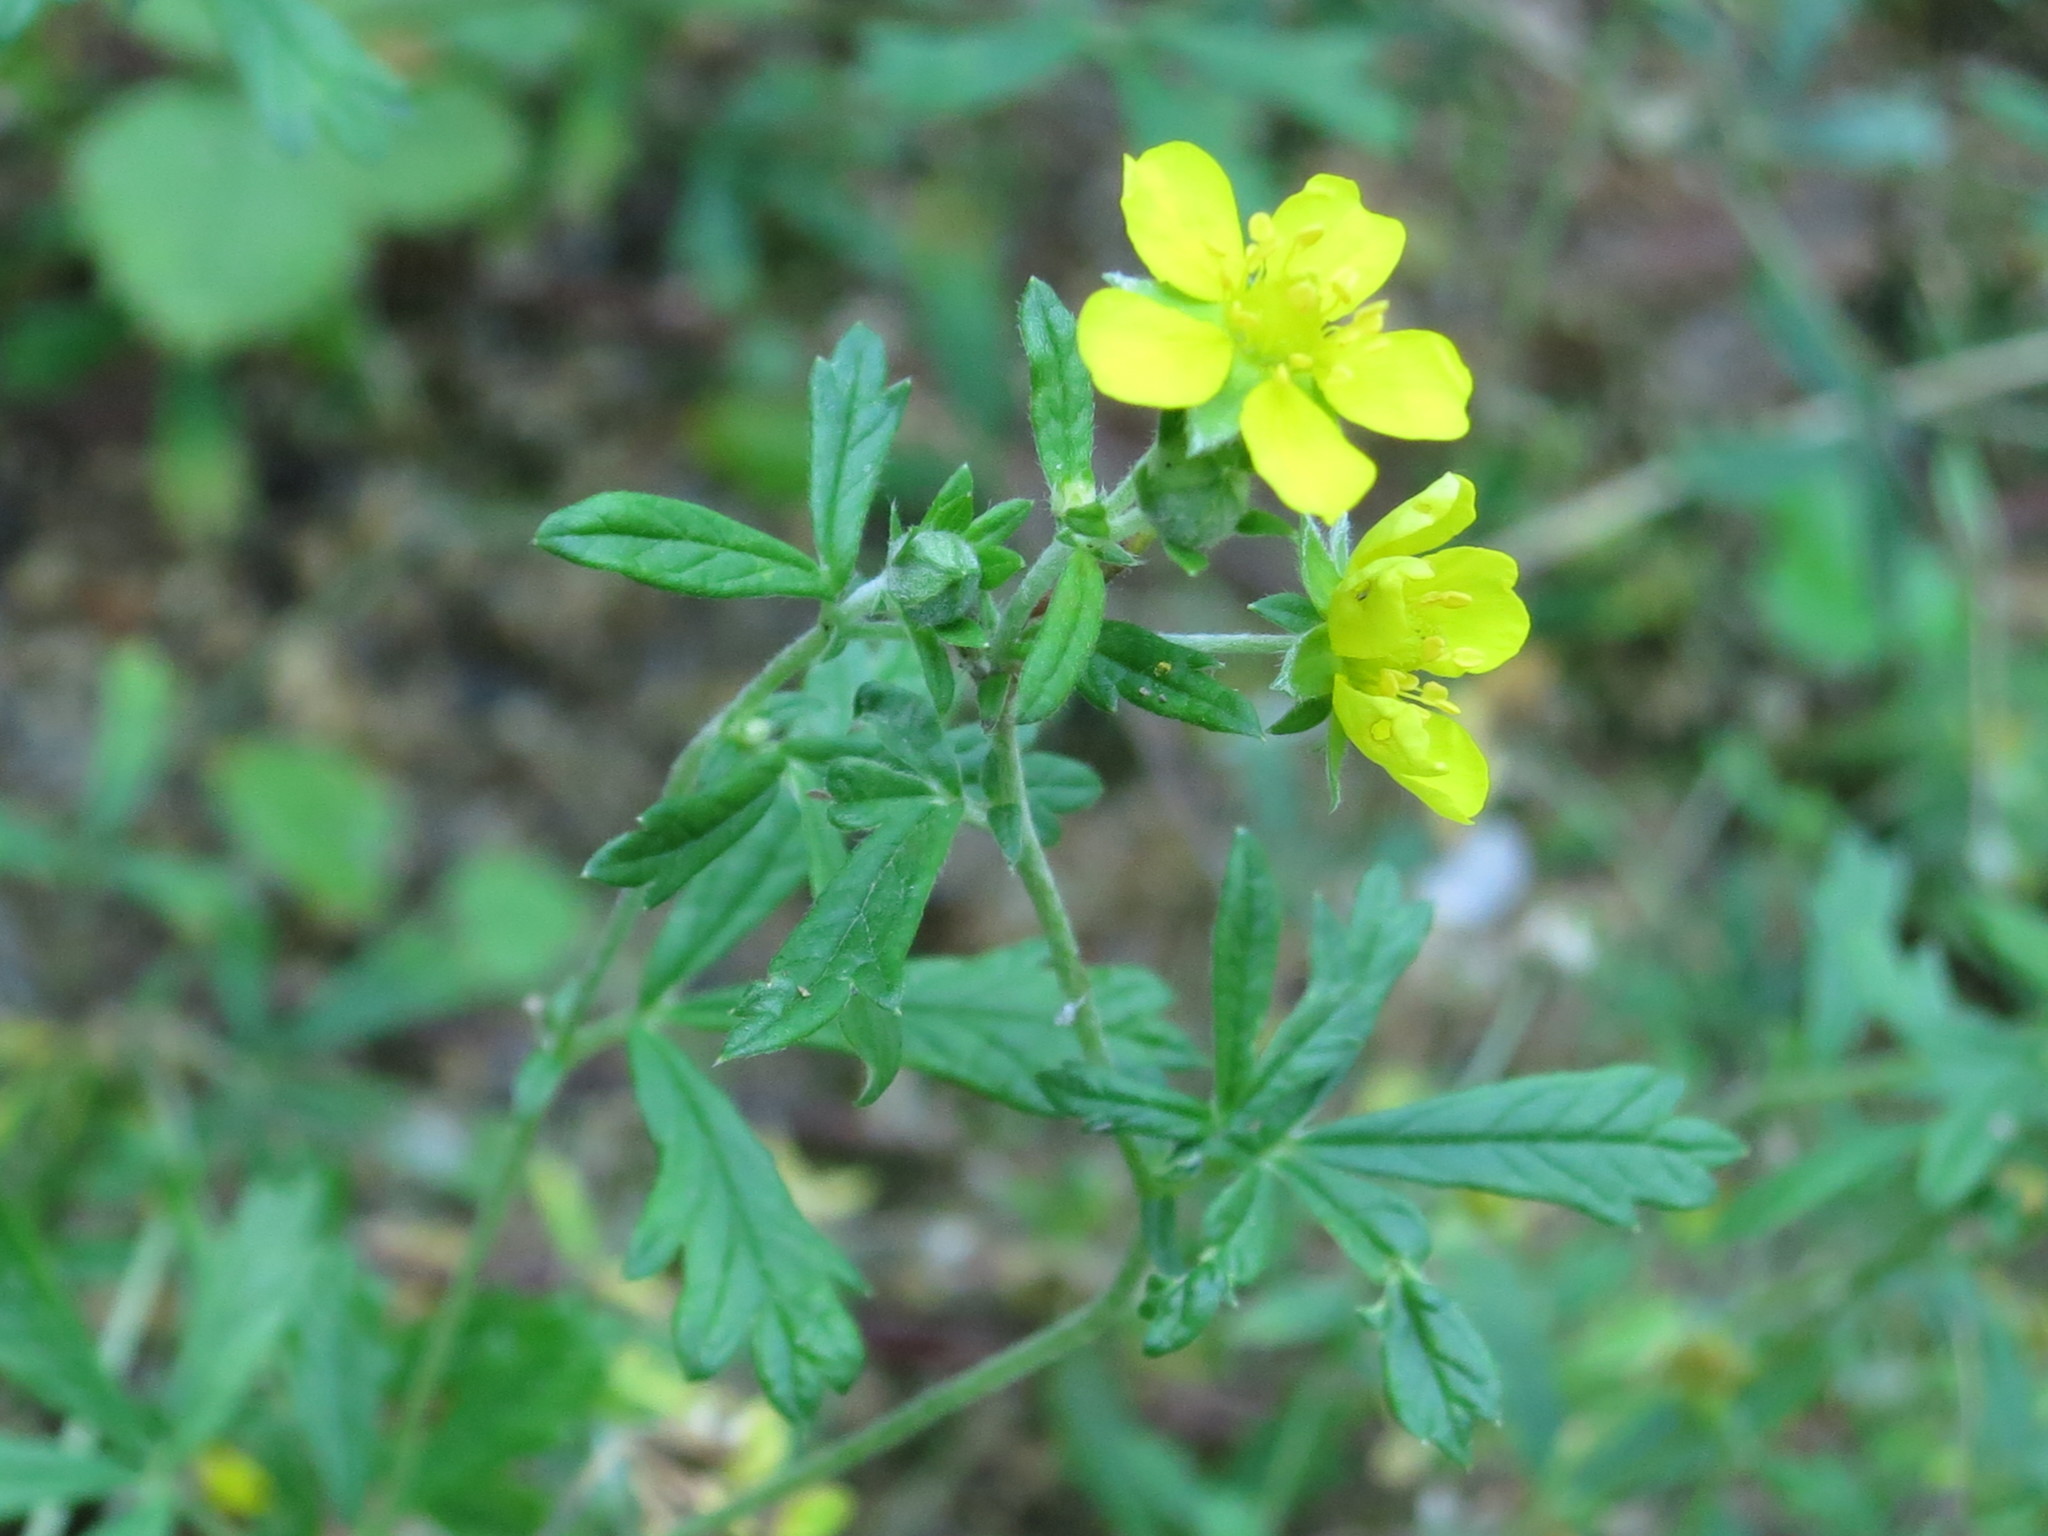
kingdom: Plantae
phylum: Tracheophyta
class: Magnoliopsida
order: Rosales
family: Rosaceae
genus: Potentilla
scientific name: Potentilla argentea
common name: Hoary cinquefoil
